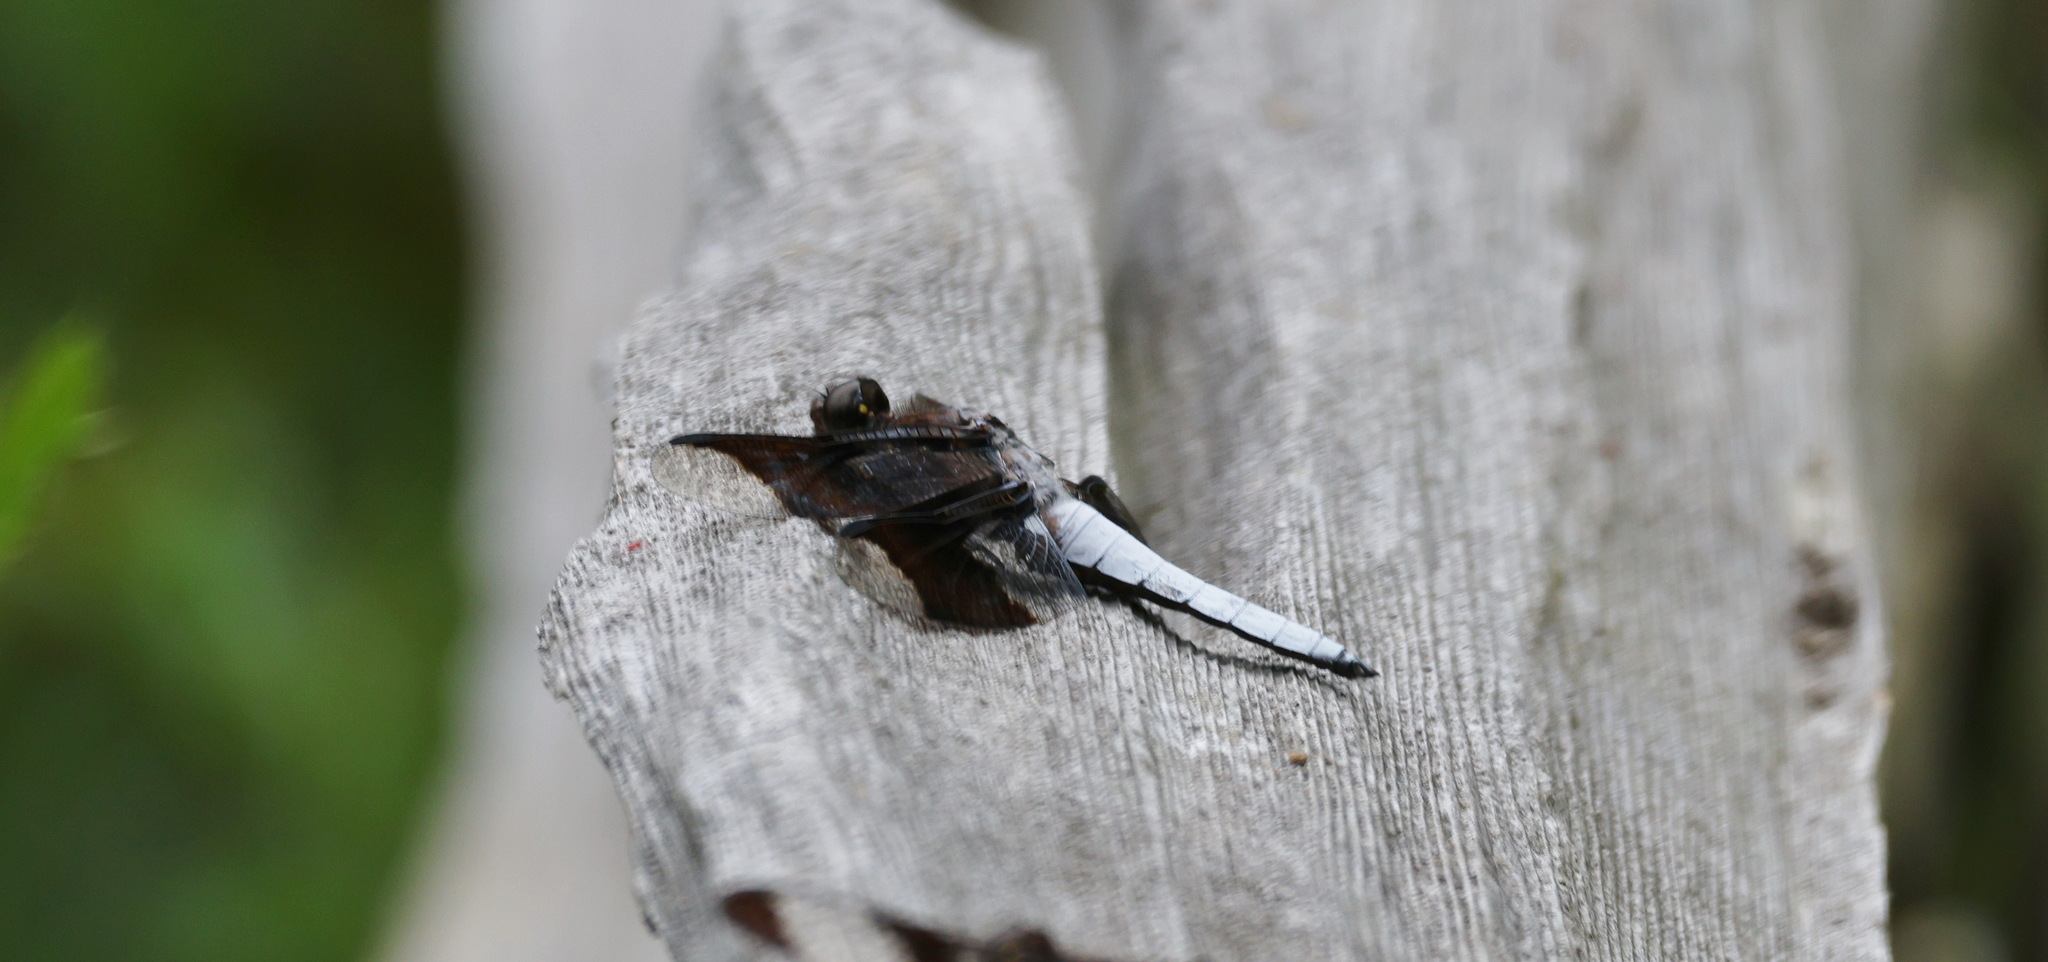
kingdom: Animalia
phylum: Arthropoda
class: Insecta
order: Odonata
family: Libellulidae
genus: Plathemis
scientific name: Plathemis lydia
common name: Common whitetail
